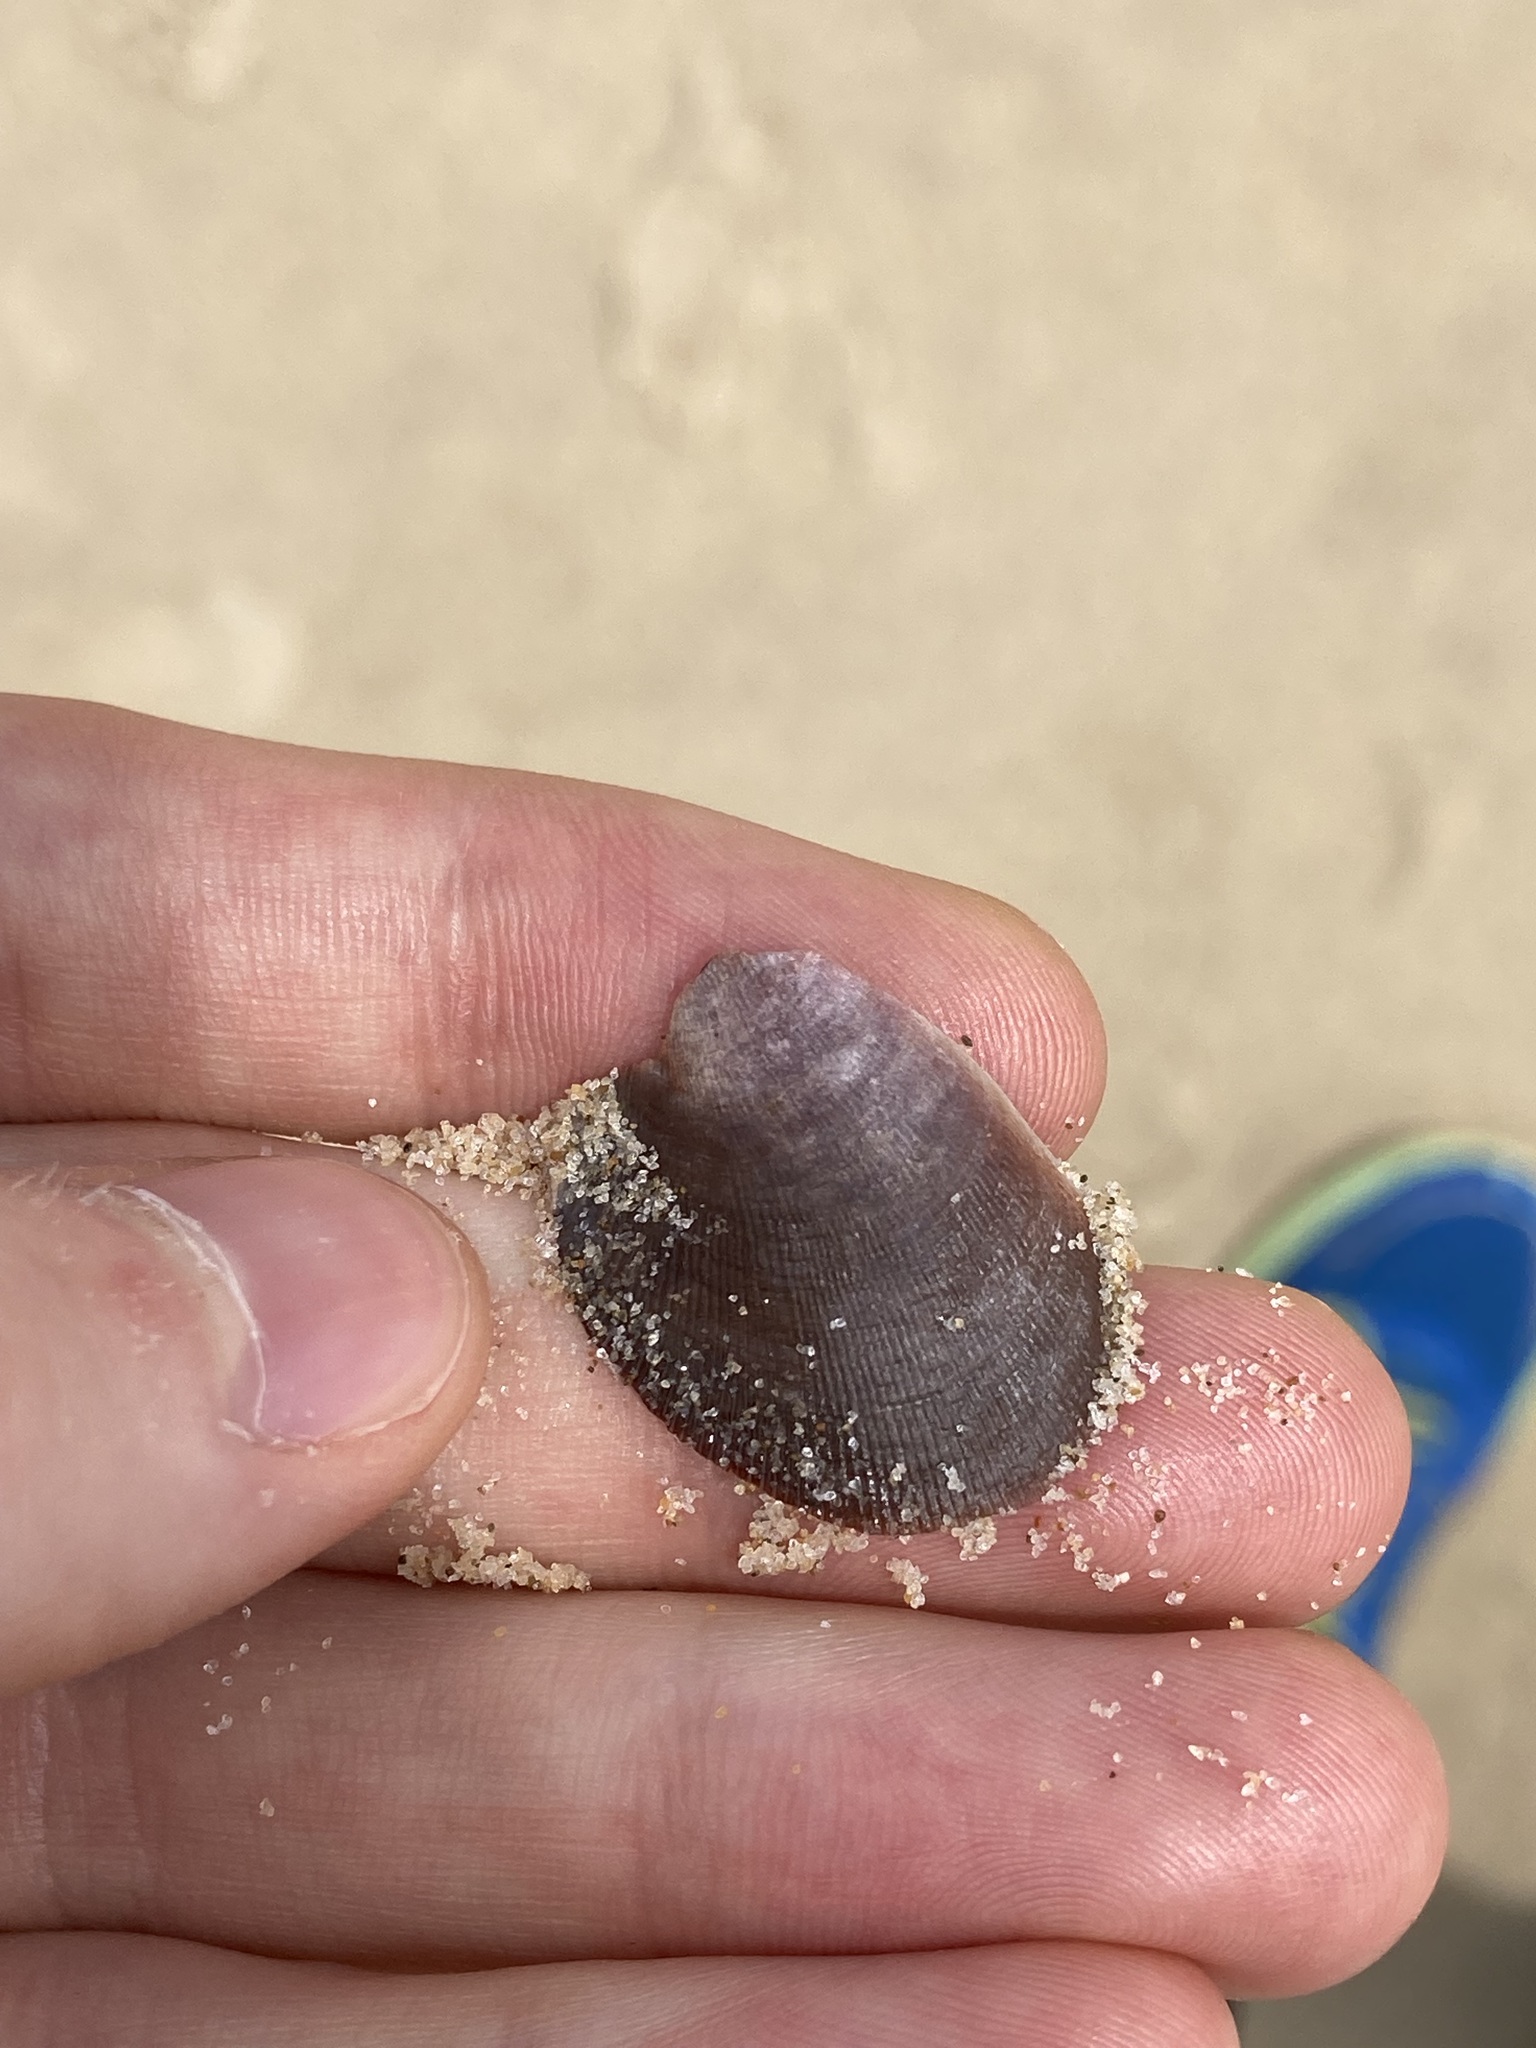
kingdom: Animalia
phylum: Mollusca
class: Bivalvia
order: Mytilida
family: Mytilidae
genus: Trichomya
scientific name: Trichomya hirsuta
